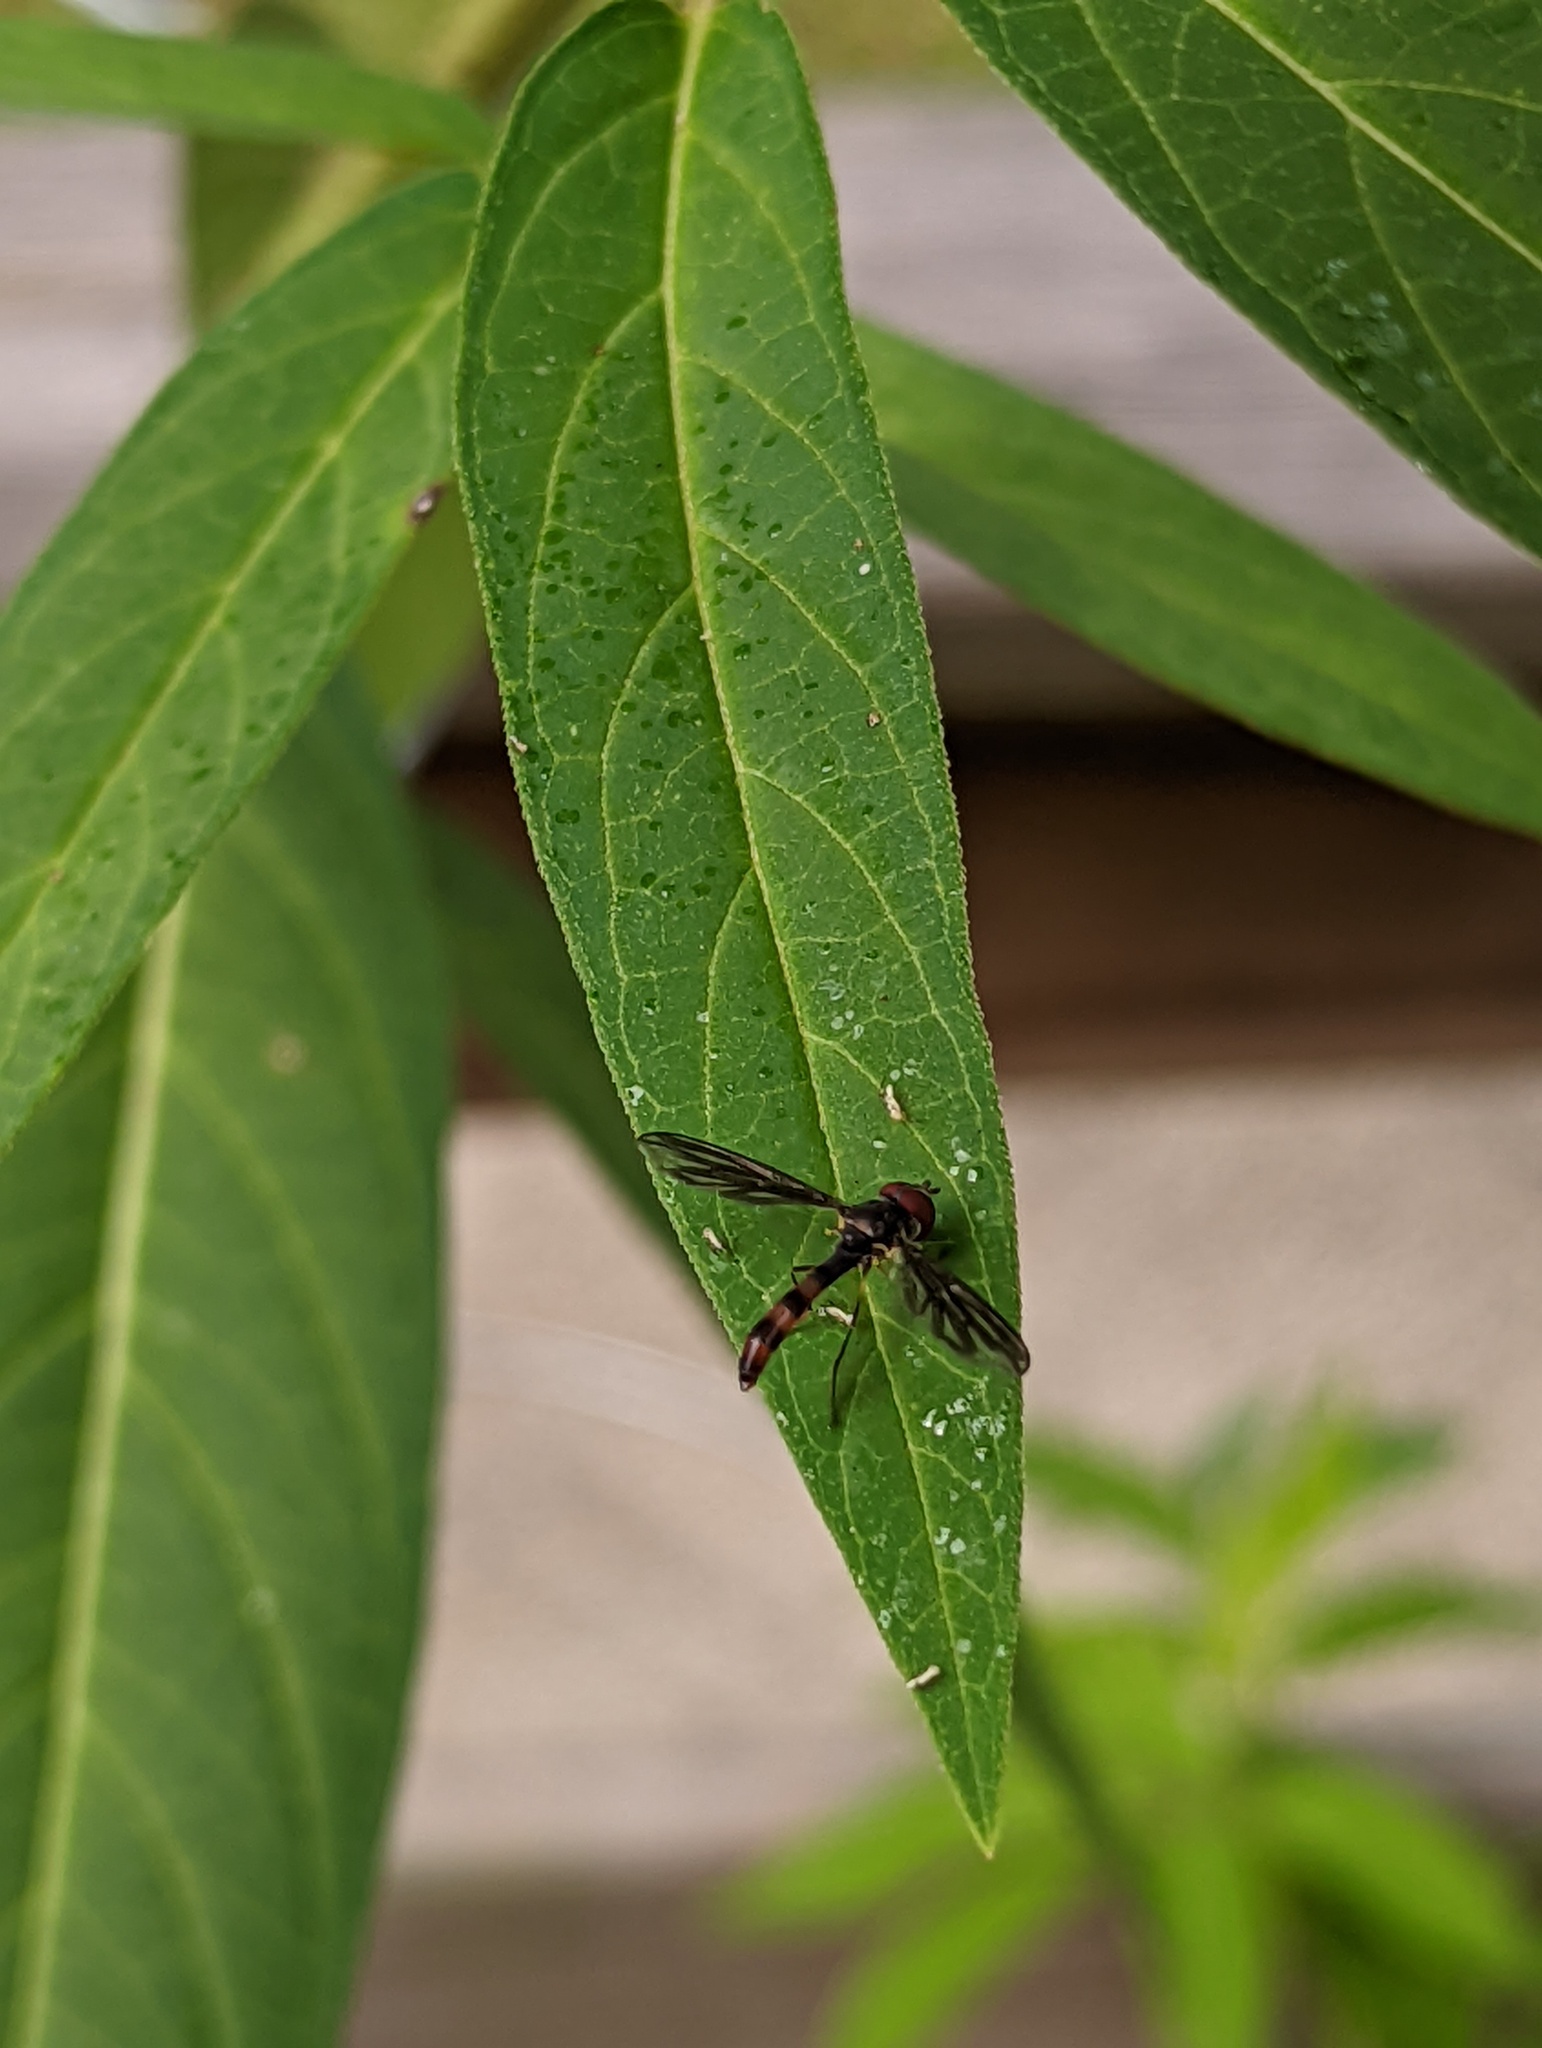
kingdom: Animalia
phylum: Arthropoda
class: Insecta
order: Diptera
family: Syrphidae
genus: Ocyptamus
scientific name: Ocyptamus fuscipennis
